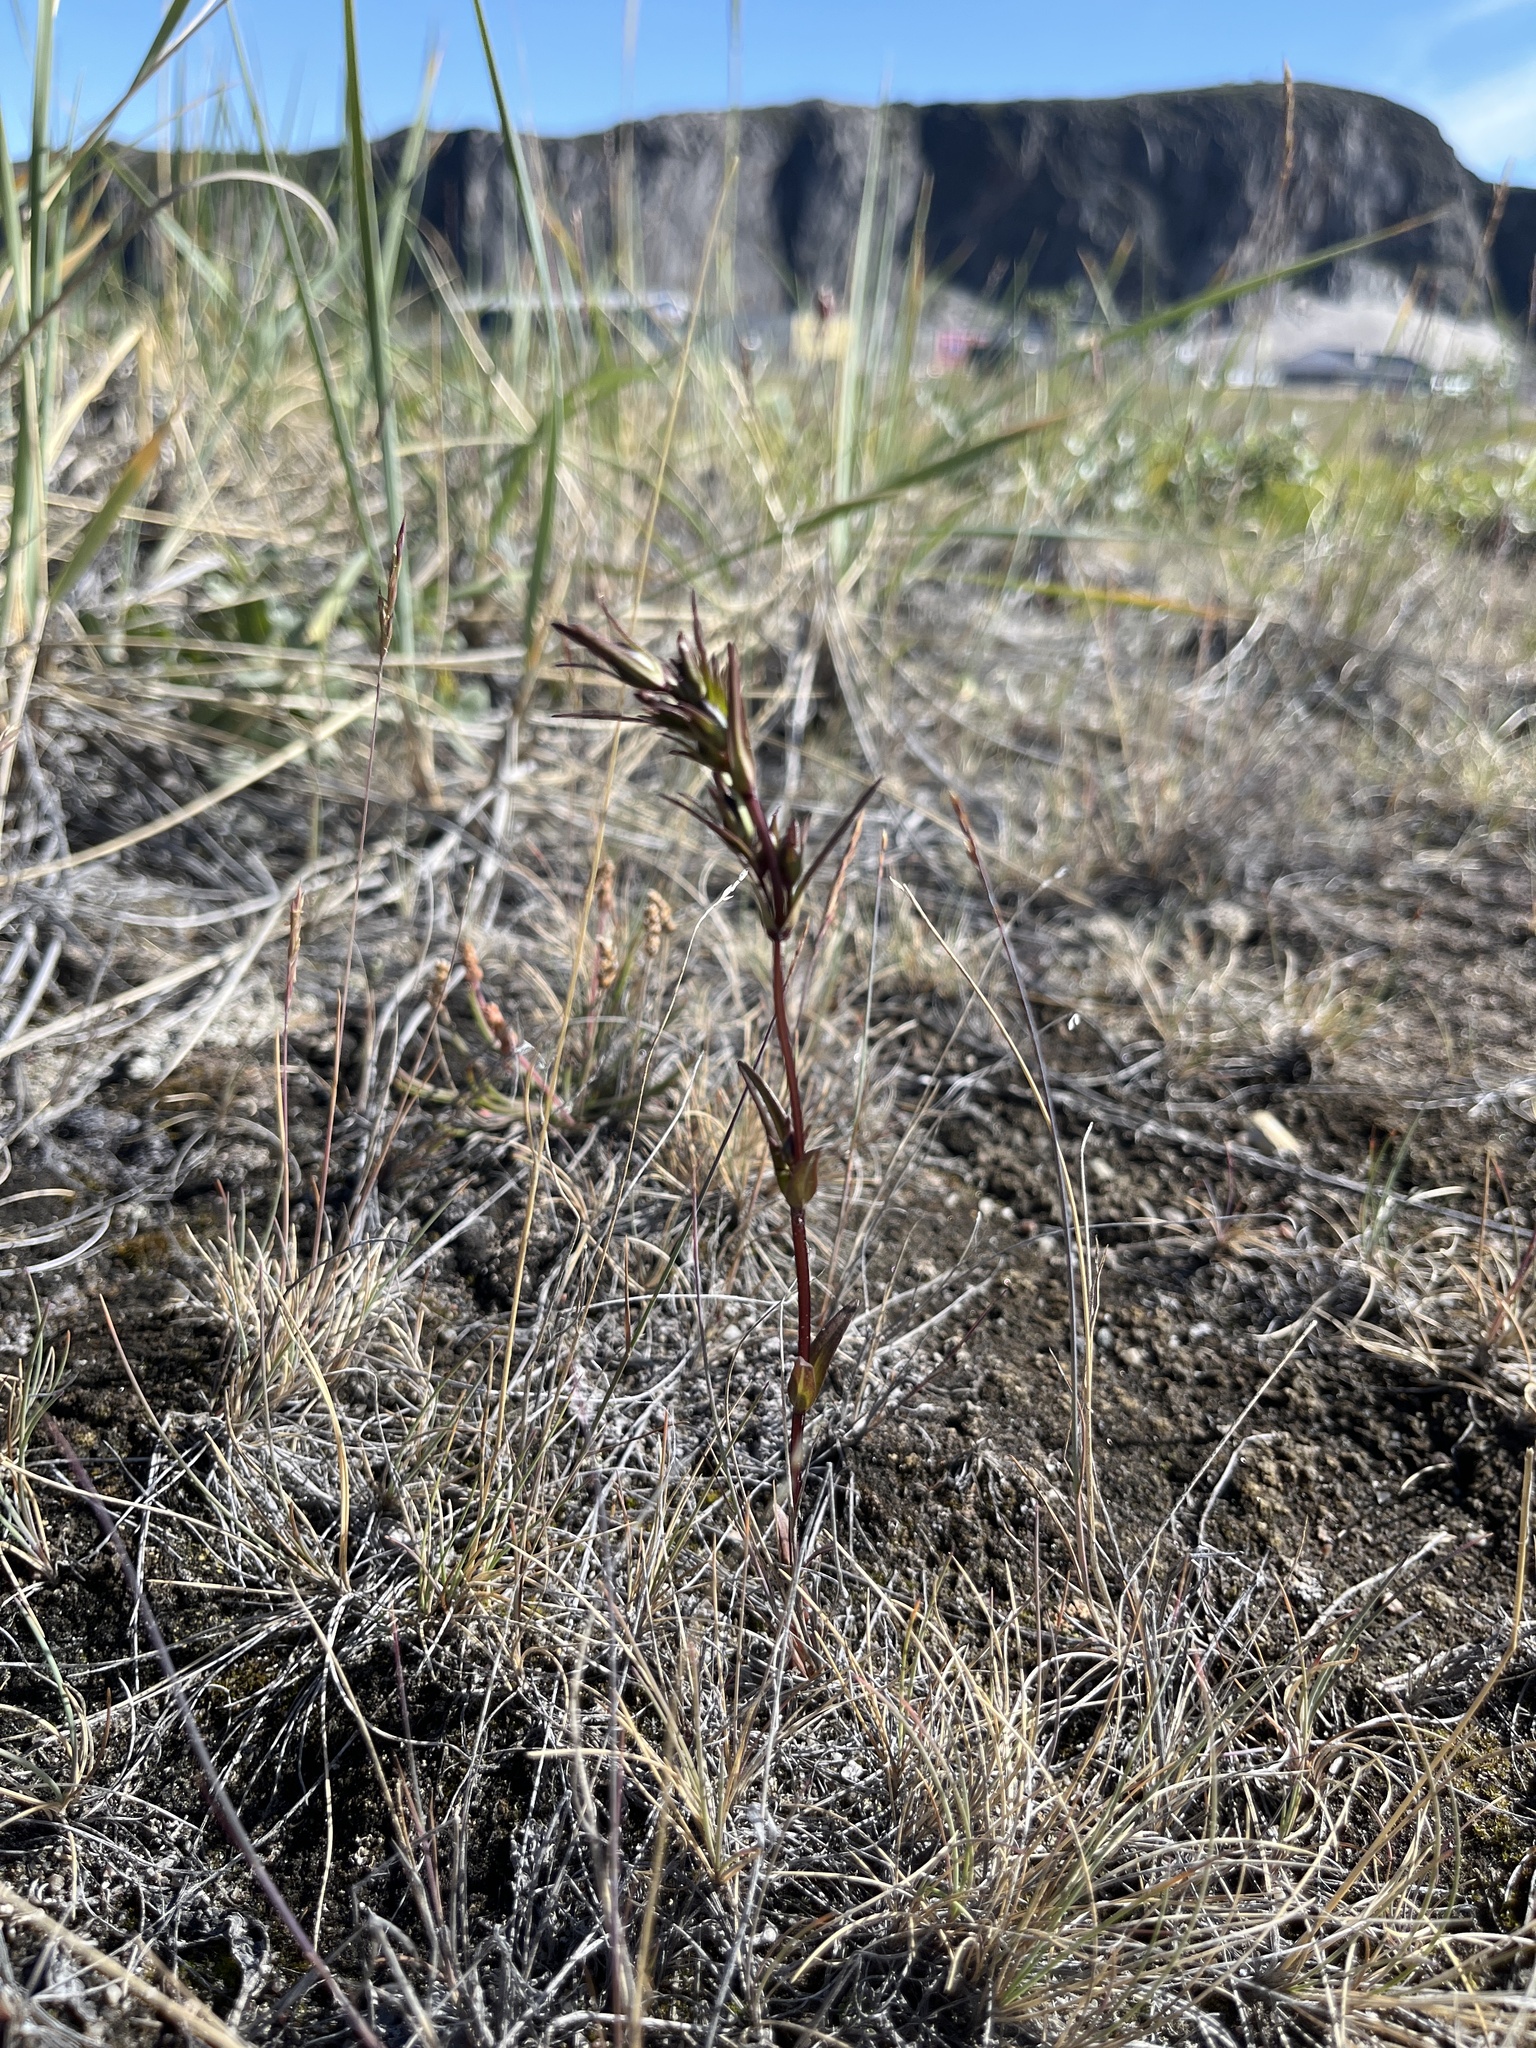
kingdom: Plantae
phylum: Tracheophyta
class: Magnoliopsida
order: Gentianales
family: Gentianaceae
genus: Lomatogonium
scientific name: Lomatogonium rotatum
